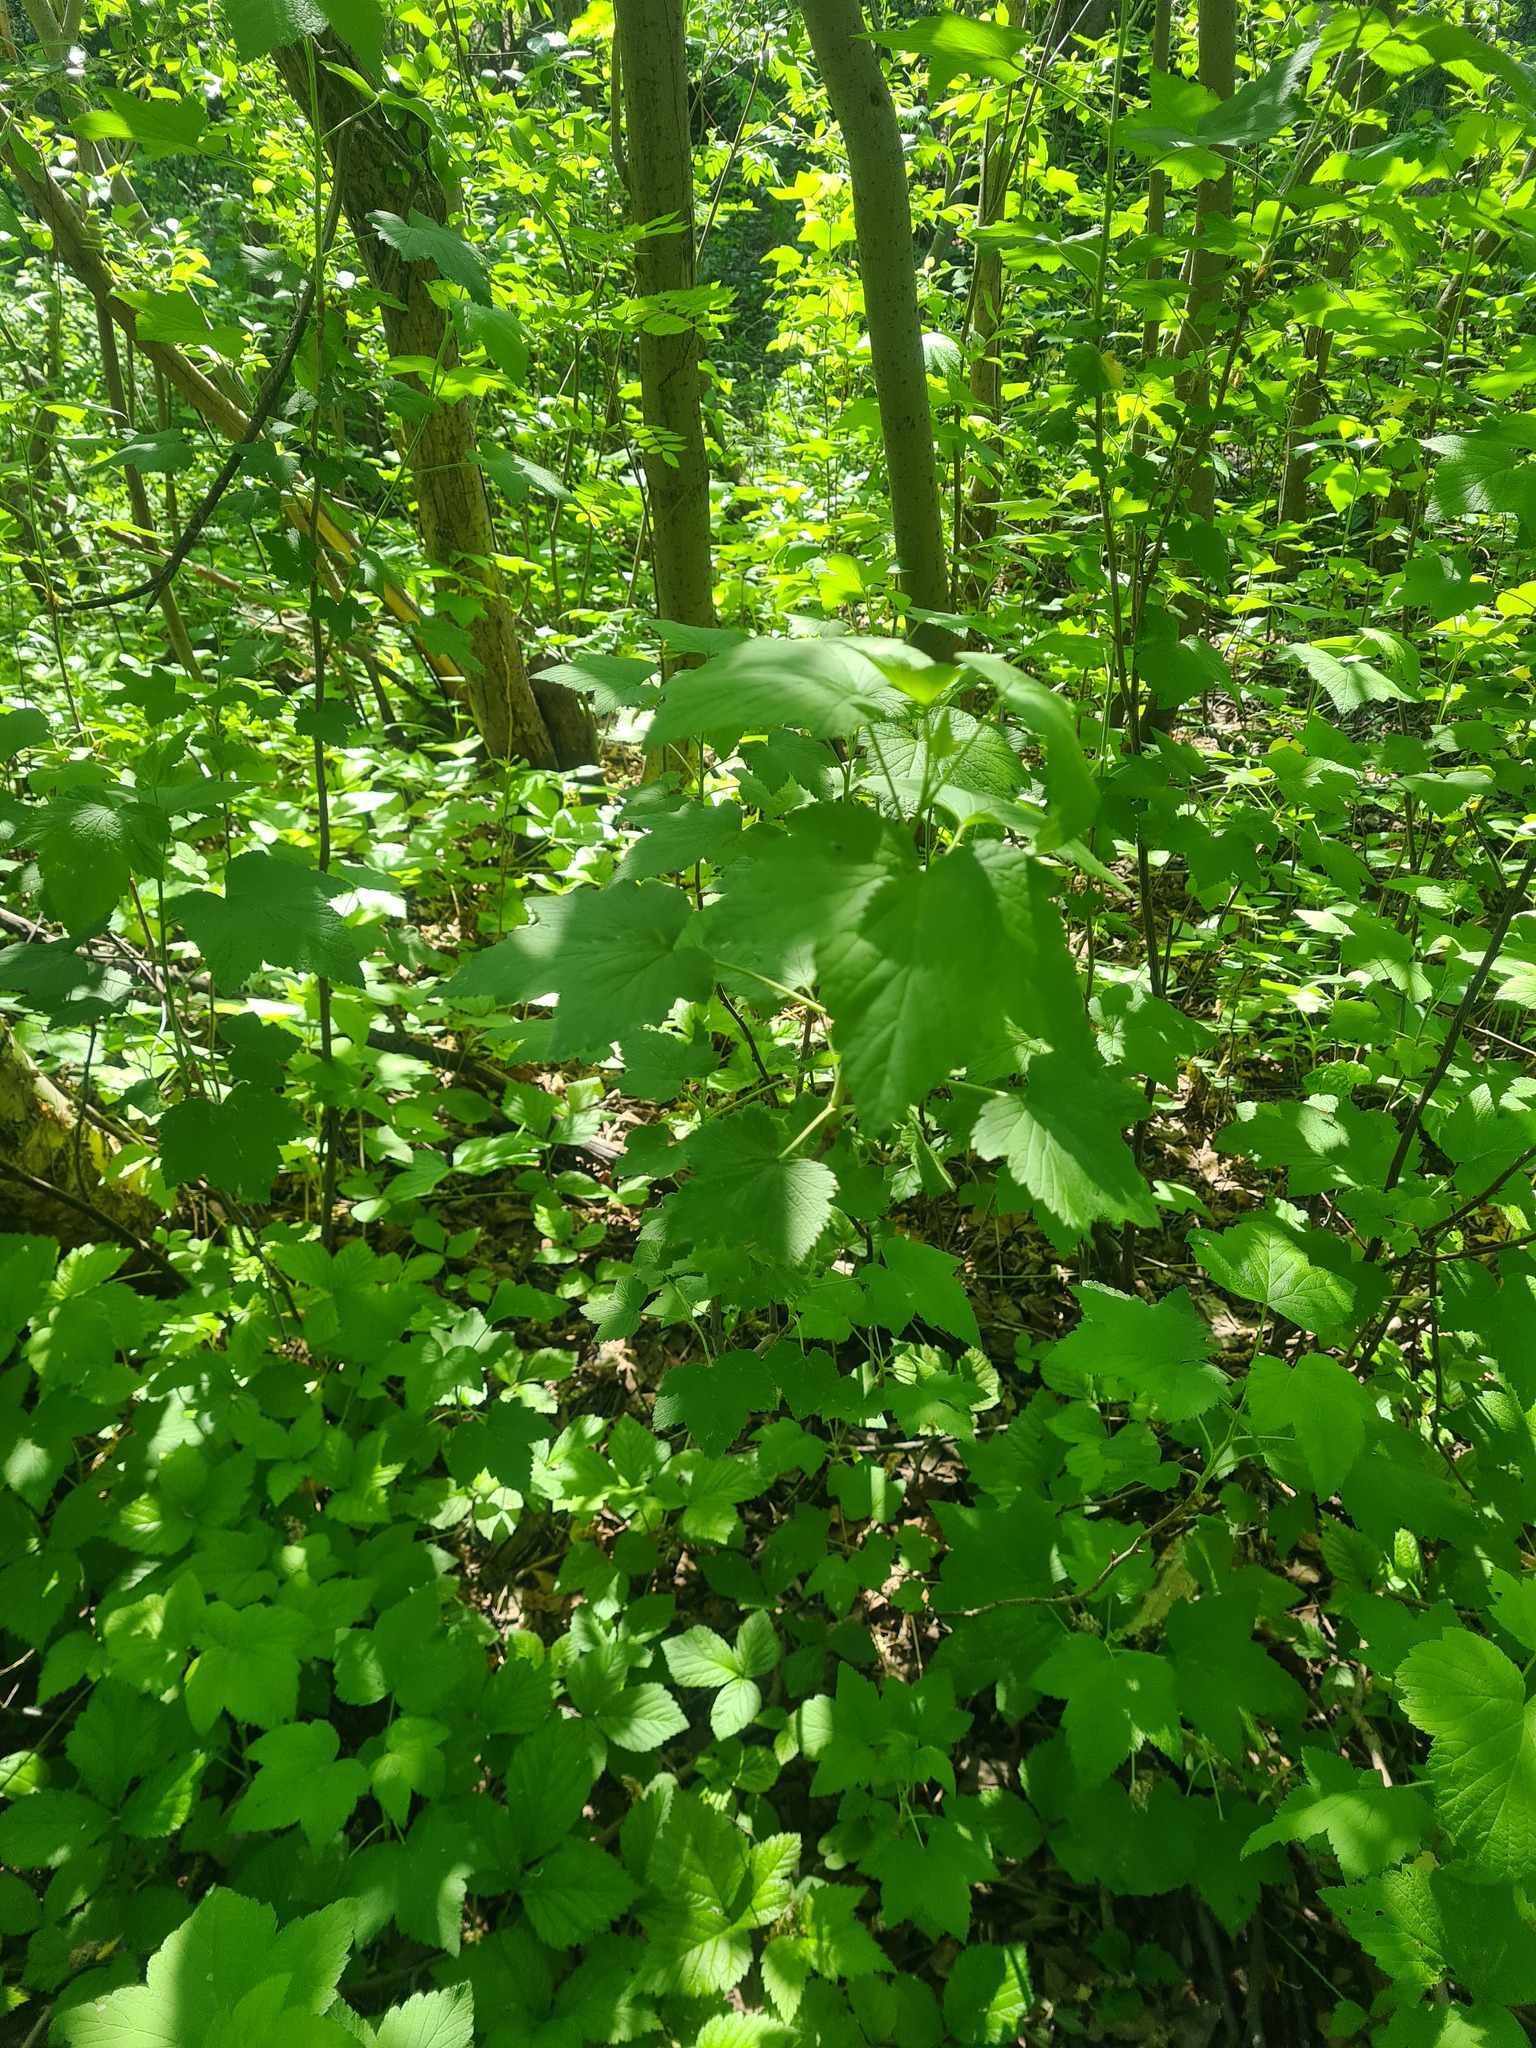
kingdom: Plantae
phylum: Tracheophyta
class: Magnoliopsida
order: Saxifragales
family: Grossulariaceae
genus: Ribes
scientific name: Ribes nigrum
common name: Black currant
